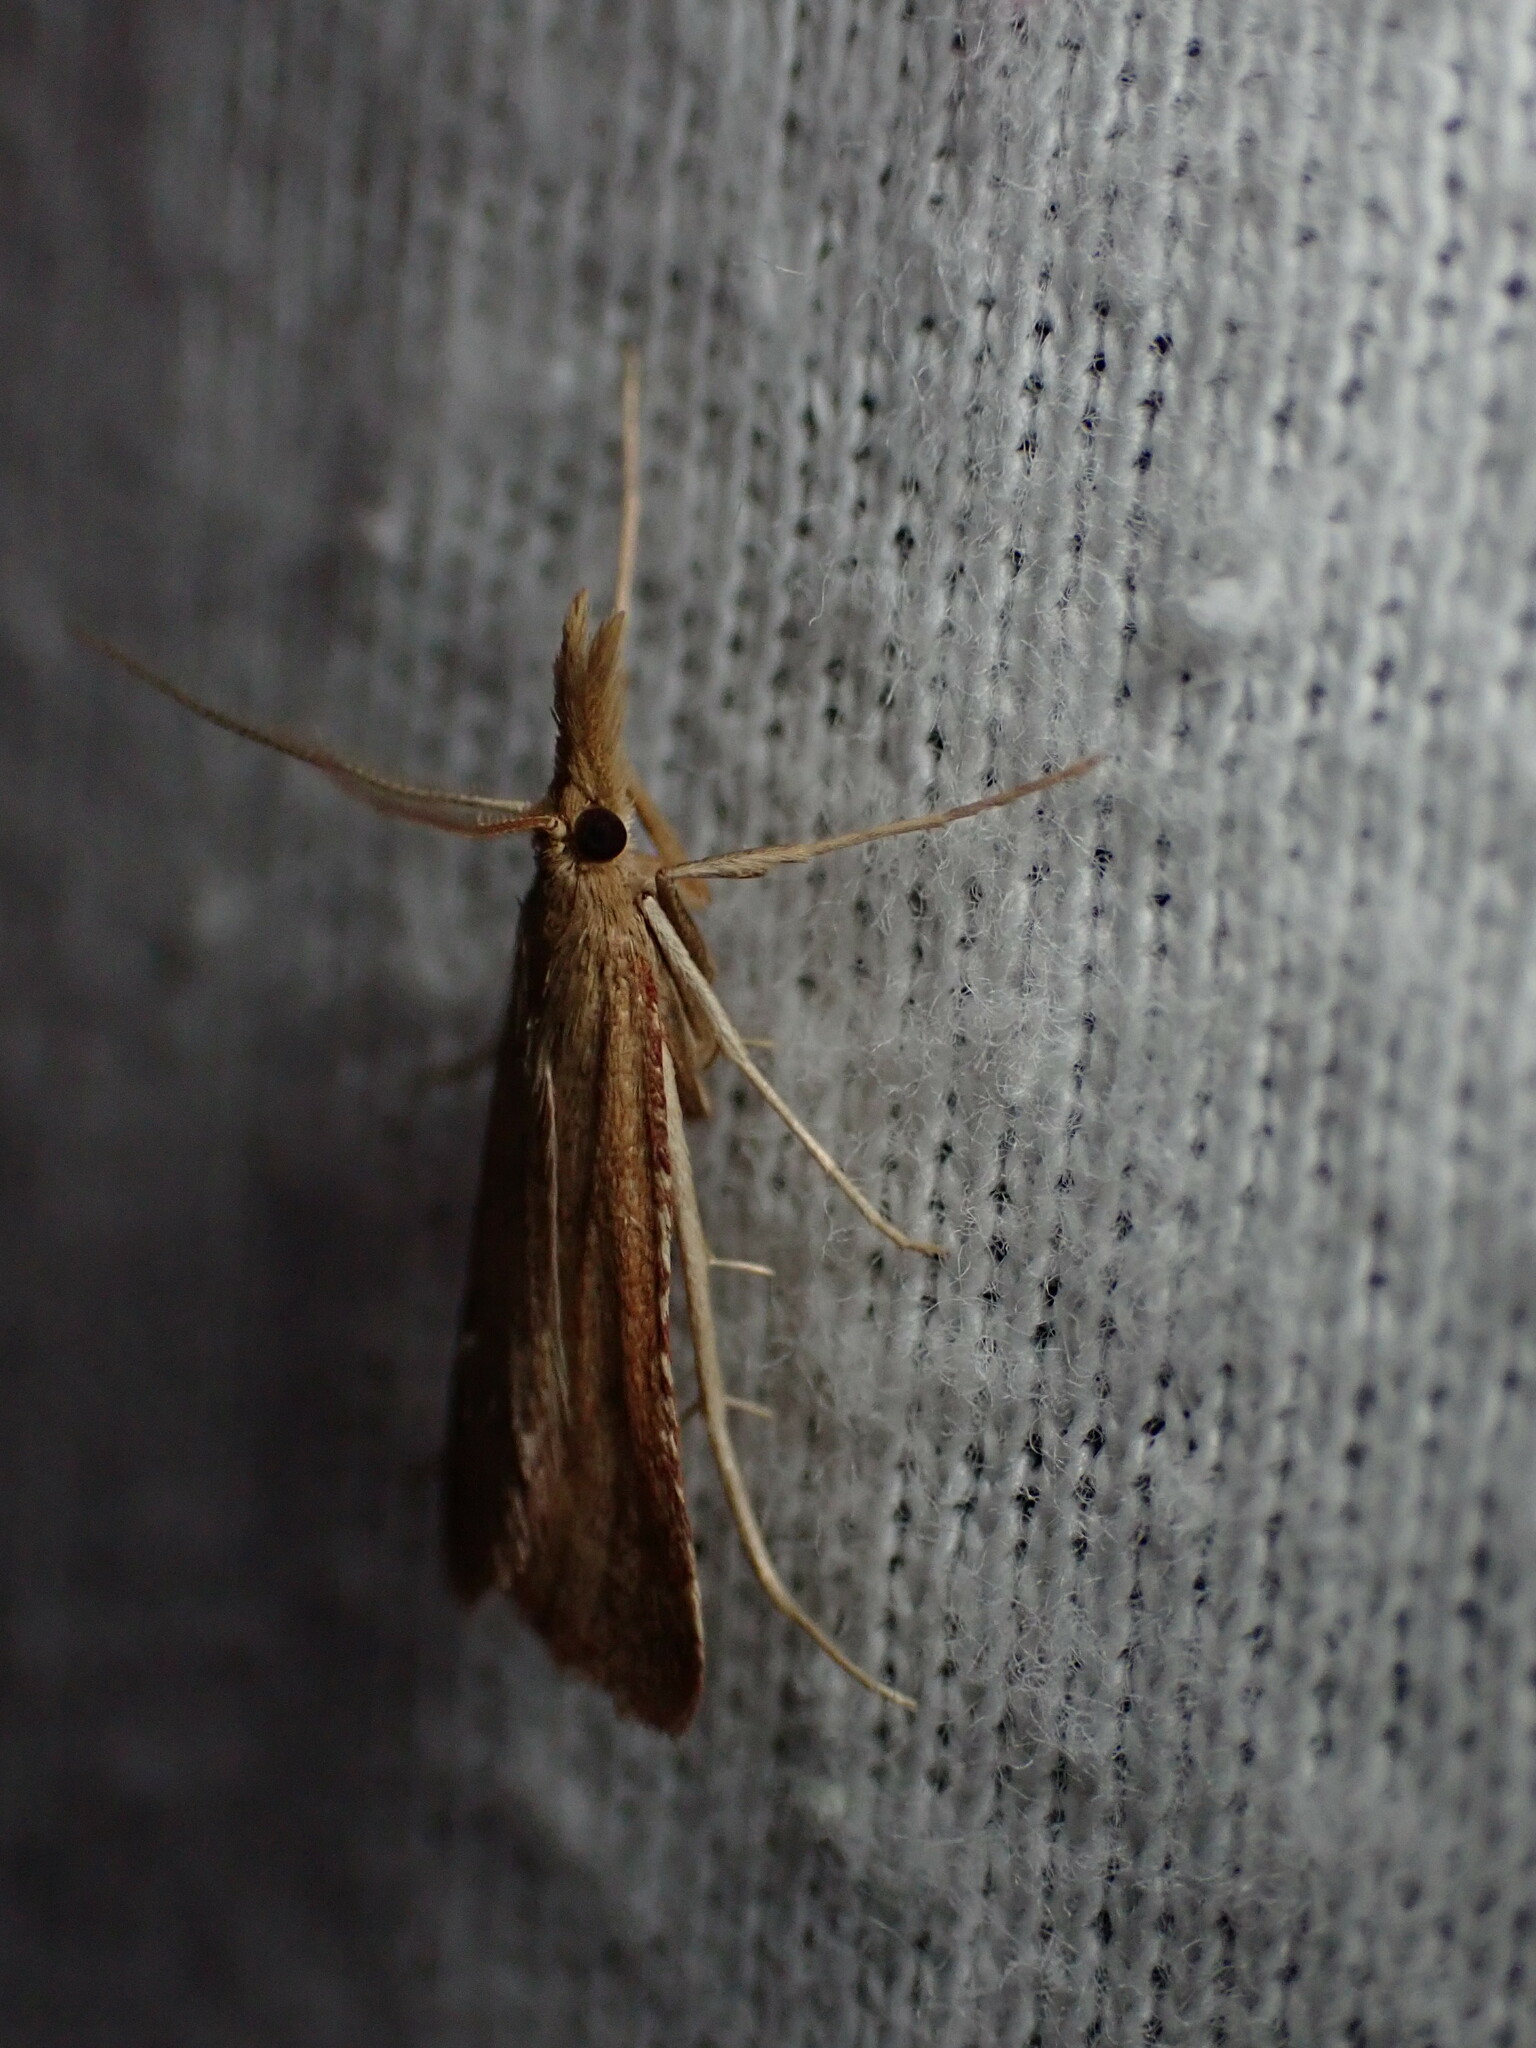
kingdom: Animalia
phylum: Arthropoda
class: Insecta
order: Lepidoptera
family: Pyralidae
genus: Synaphe
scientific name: Synaphe punctalis
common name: Long-legged tabby
